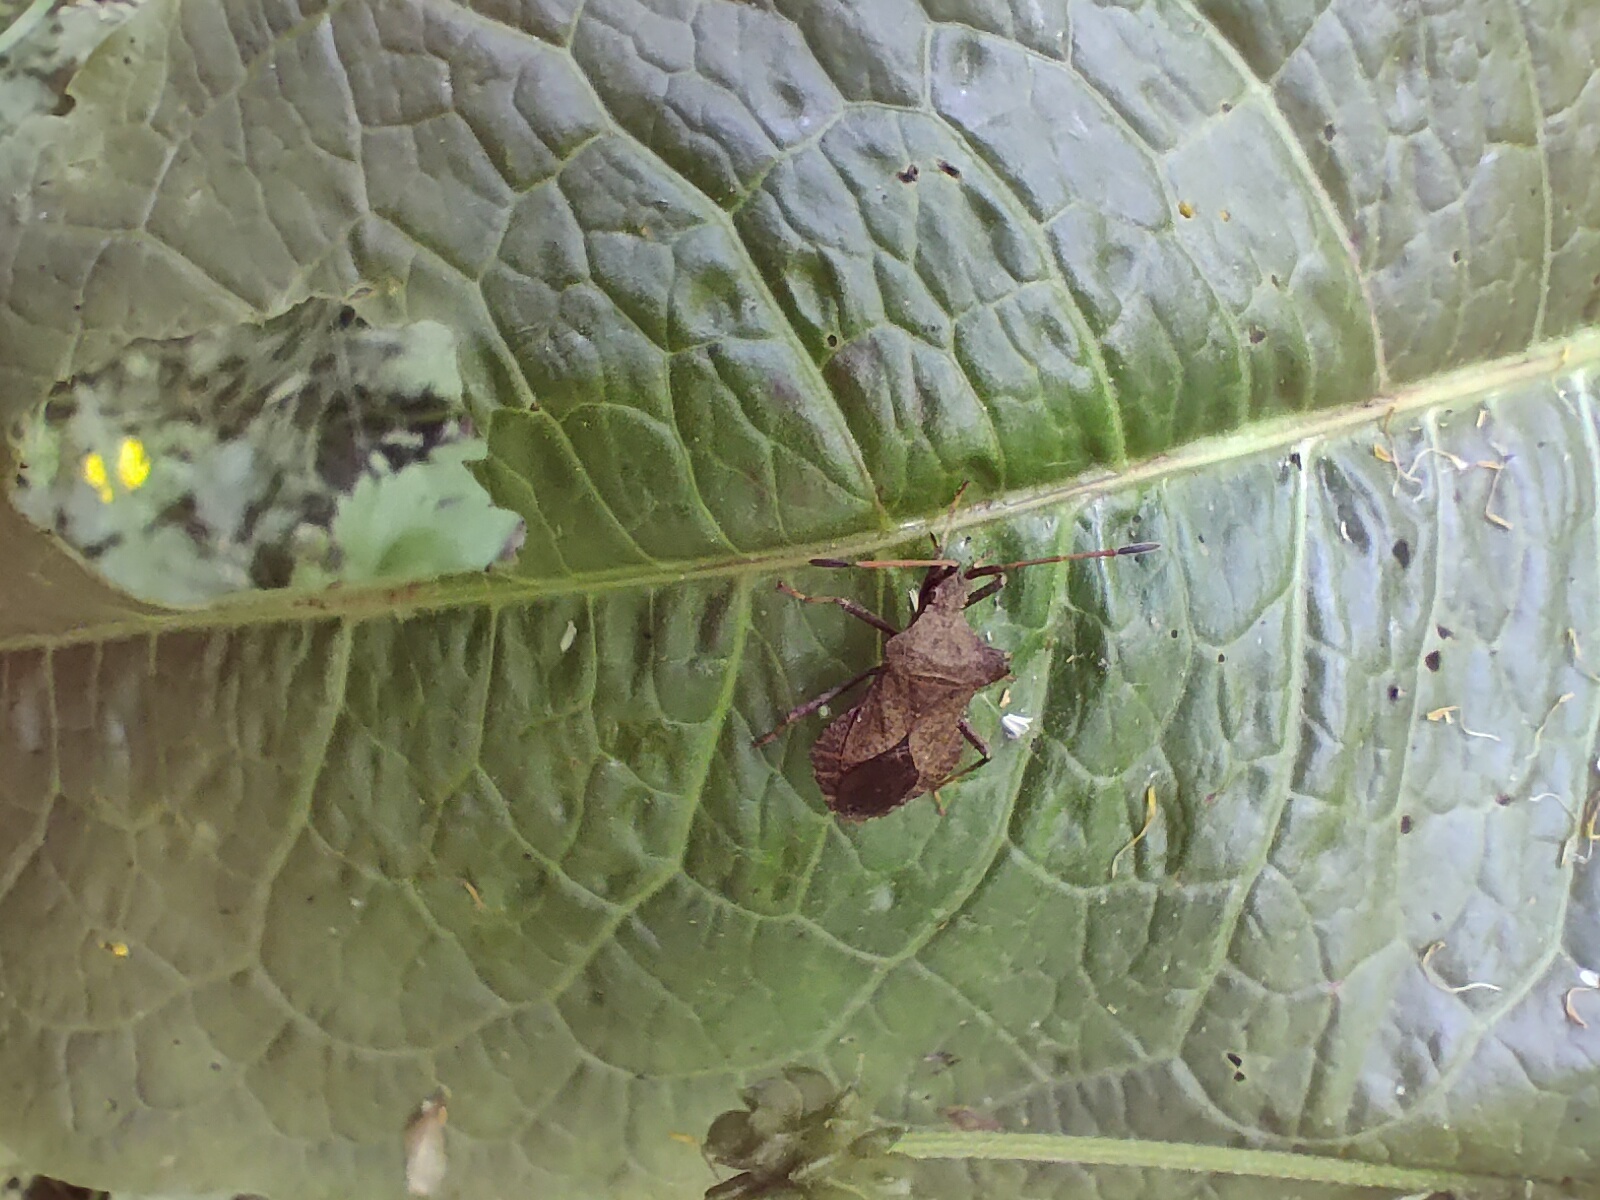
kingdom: Animalia
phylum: Arthropoda
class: Insecta
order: Hemiptera
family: Coreidae
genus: Coreus
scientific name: Coreus marginatus
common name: Dock bug
